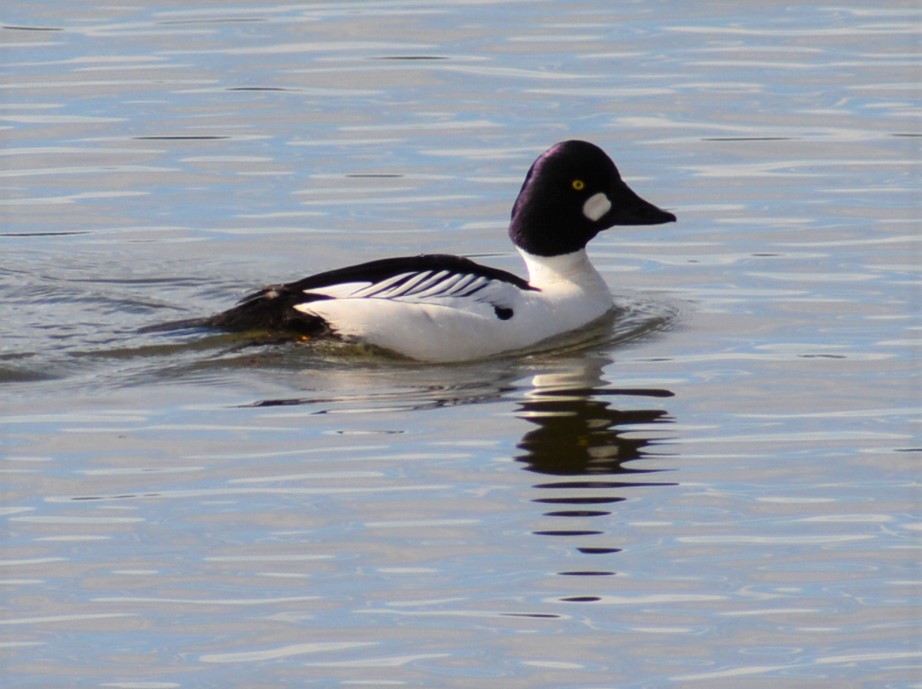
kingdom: Animalia
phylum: Chordata
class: Aves
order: Anseriformes
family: Anatidae
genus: Bucephala
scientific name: Bucephala clangula
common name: Common goldeneye
